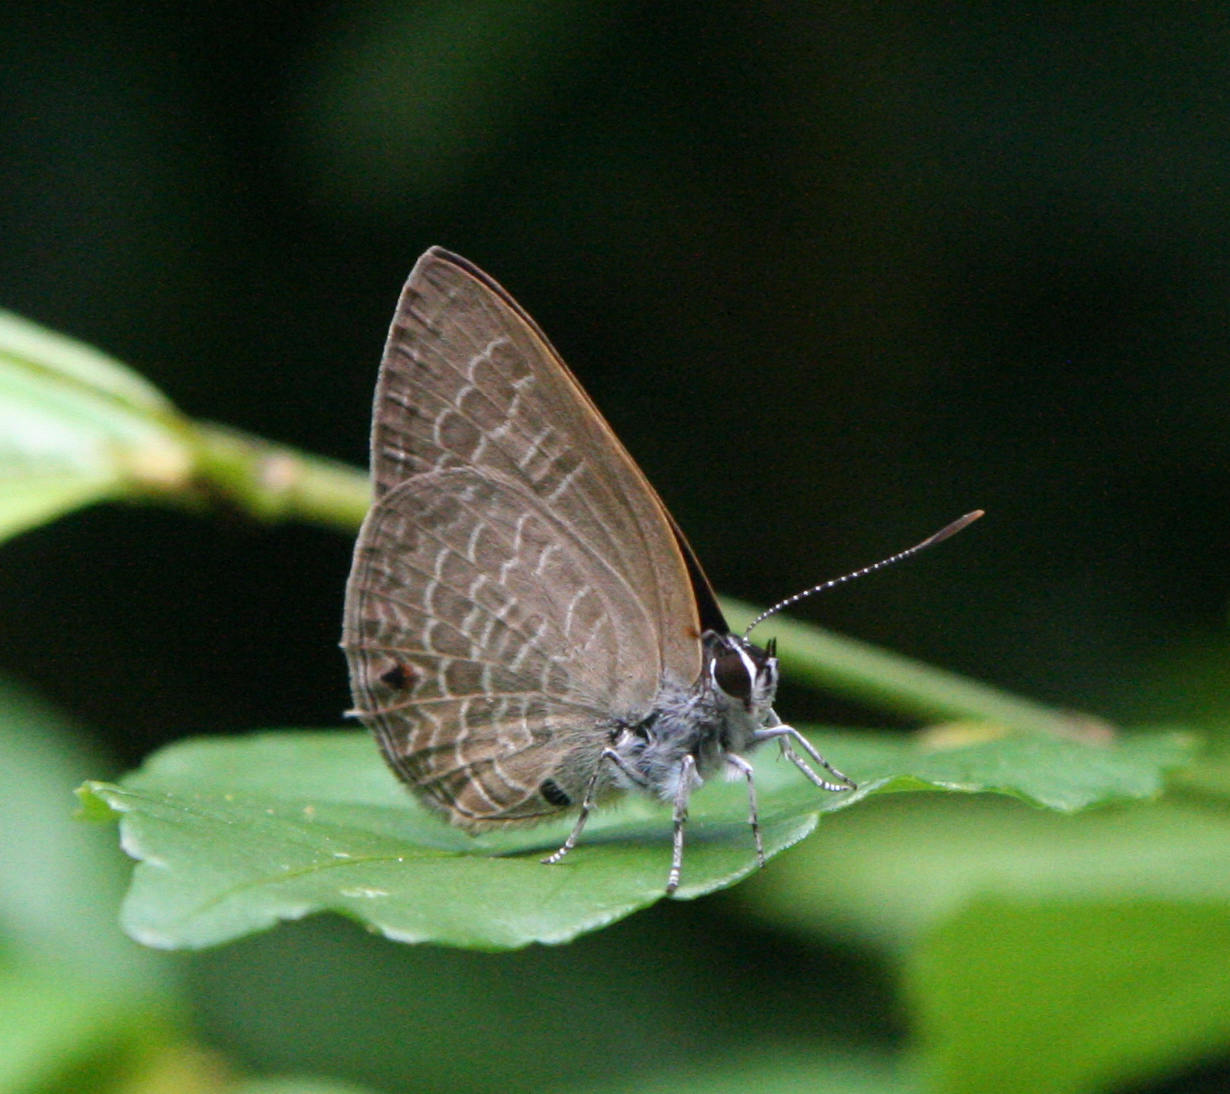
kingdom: Animalia
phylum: Arthropoda
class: Insecta
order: Lepidoptera
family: Lycaenidae
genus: Anthene
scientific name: Anthene emolus
